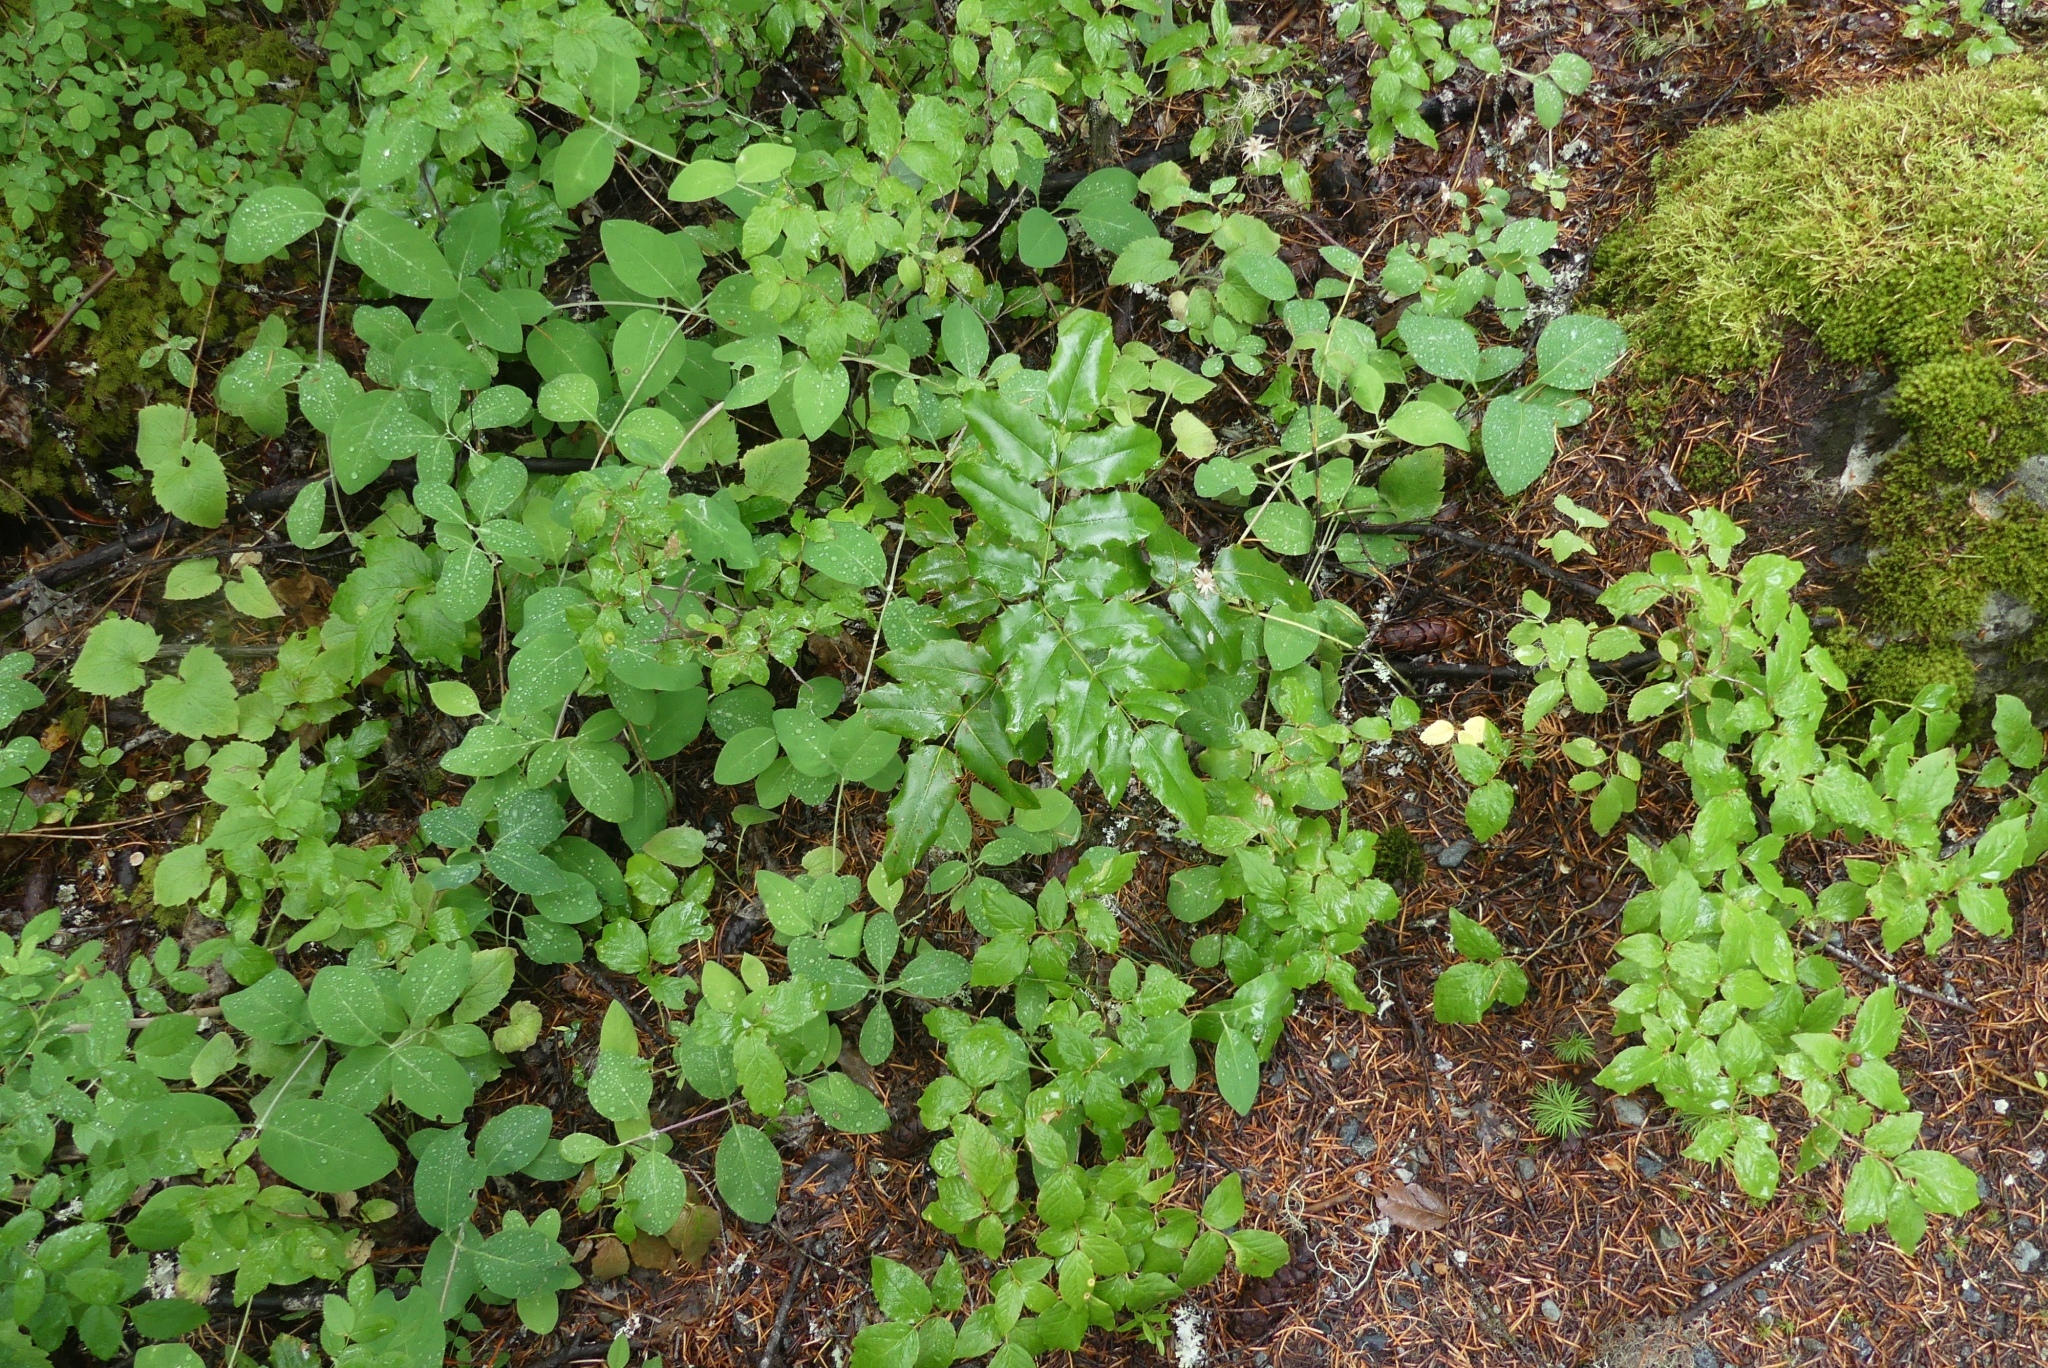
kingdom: Plantae
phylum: Tracheophyta
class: Magnoliopsida
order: Ranunculales
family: Berberidaceae
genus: Mahonia
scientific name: Mahonia aquifolium
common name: Oregon-grape
